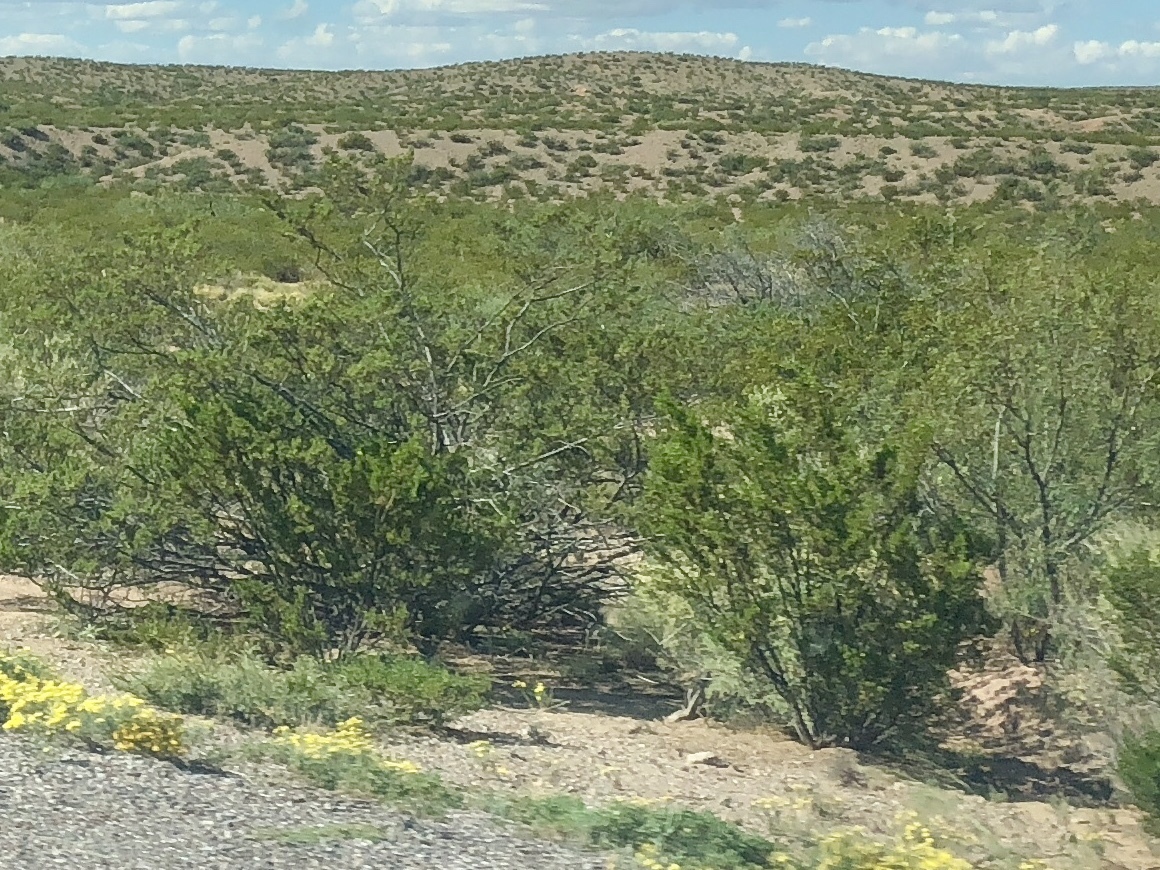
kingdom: Plantae
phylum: Tracheophyta
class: Magnoliopsida
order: Zygophyllales
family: Zygophyllaceae
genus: Larrea
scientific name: Larrea tridentata
